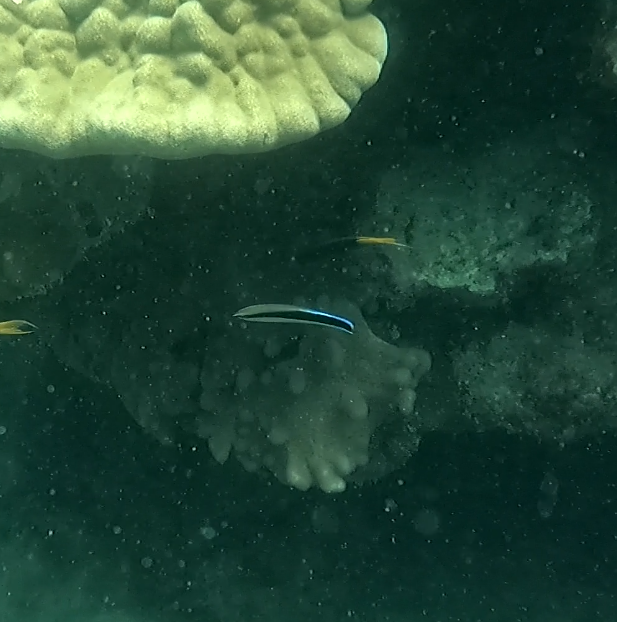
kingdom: Animalia
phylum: Chordata
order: Perciformes
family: Labridae
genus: Labroides
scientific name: Labroides dimidiatus
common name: Blue diesel wrasse
